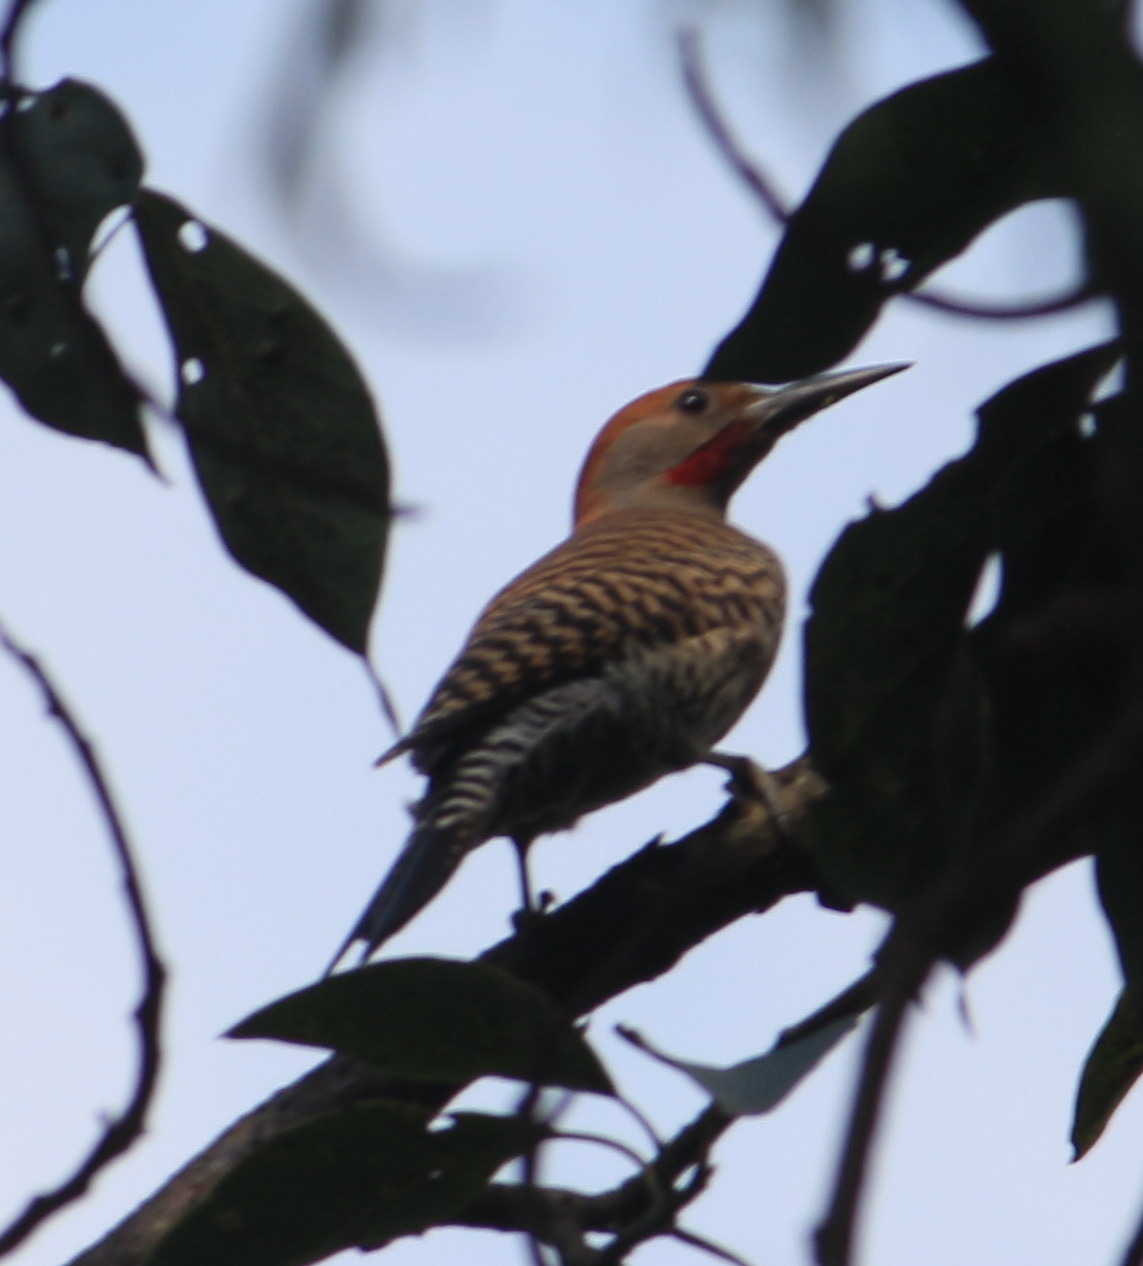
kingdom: Animalia
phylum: Chordata
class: Aves
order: Piciformes
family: Picidae
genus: Colaptes
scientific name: Colaptes auratus
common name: Northern flicker
